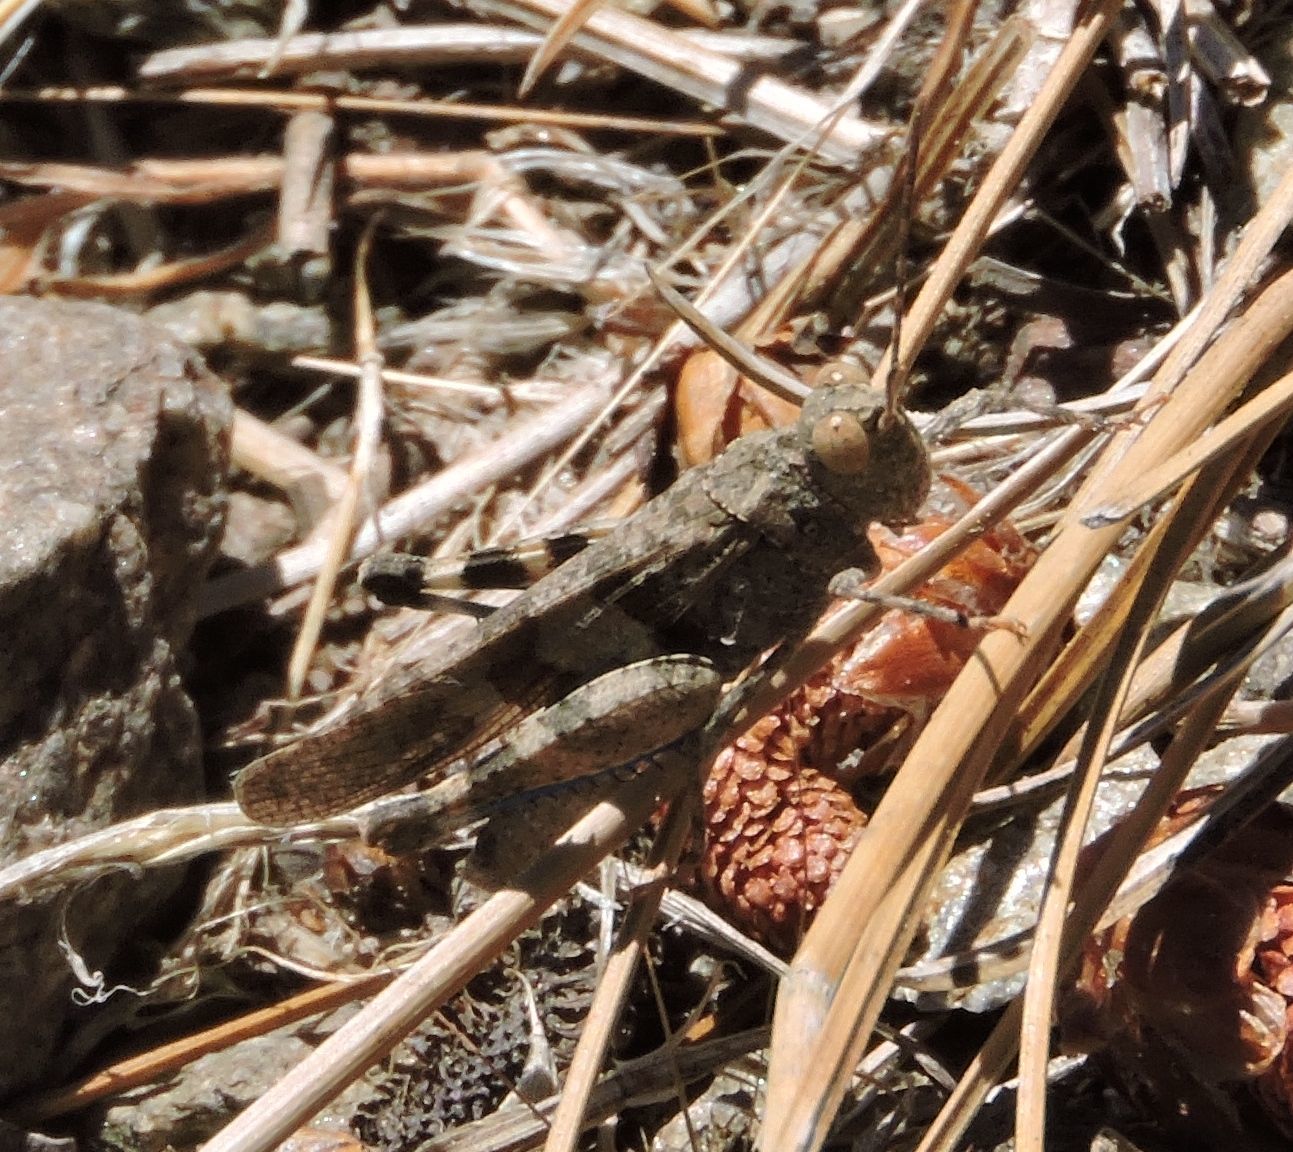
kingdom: Animalia
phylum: Arthropoda
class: Insecta
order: Orthoptera
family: Acrididae
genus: Trimerotropis
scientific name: Trimerotropis fontana
